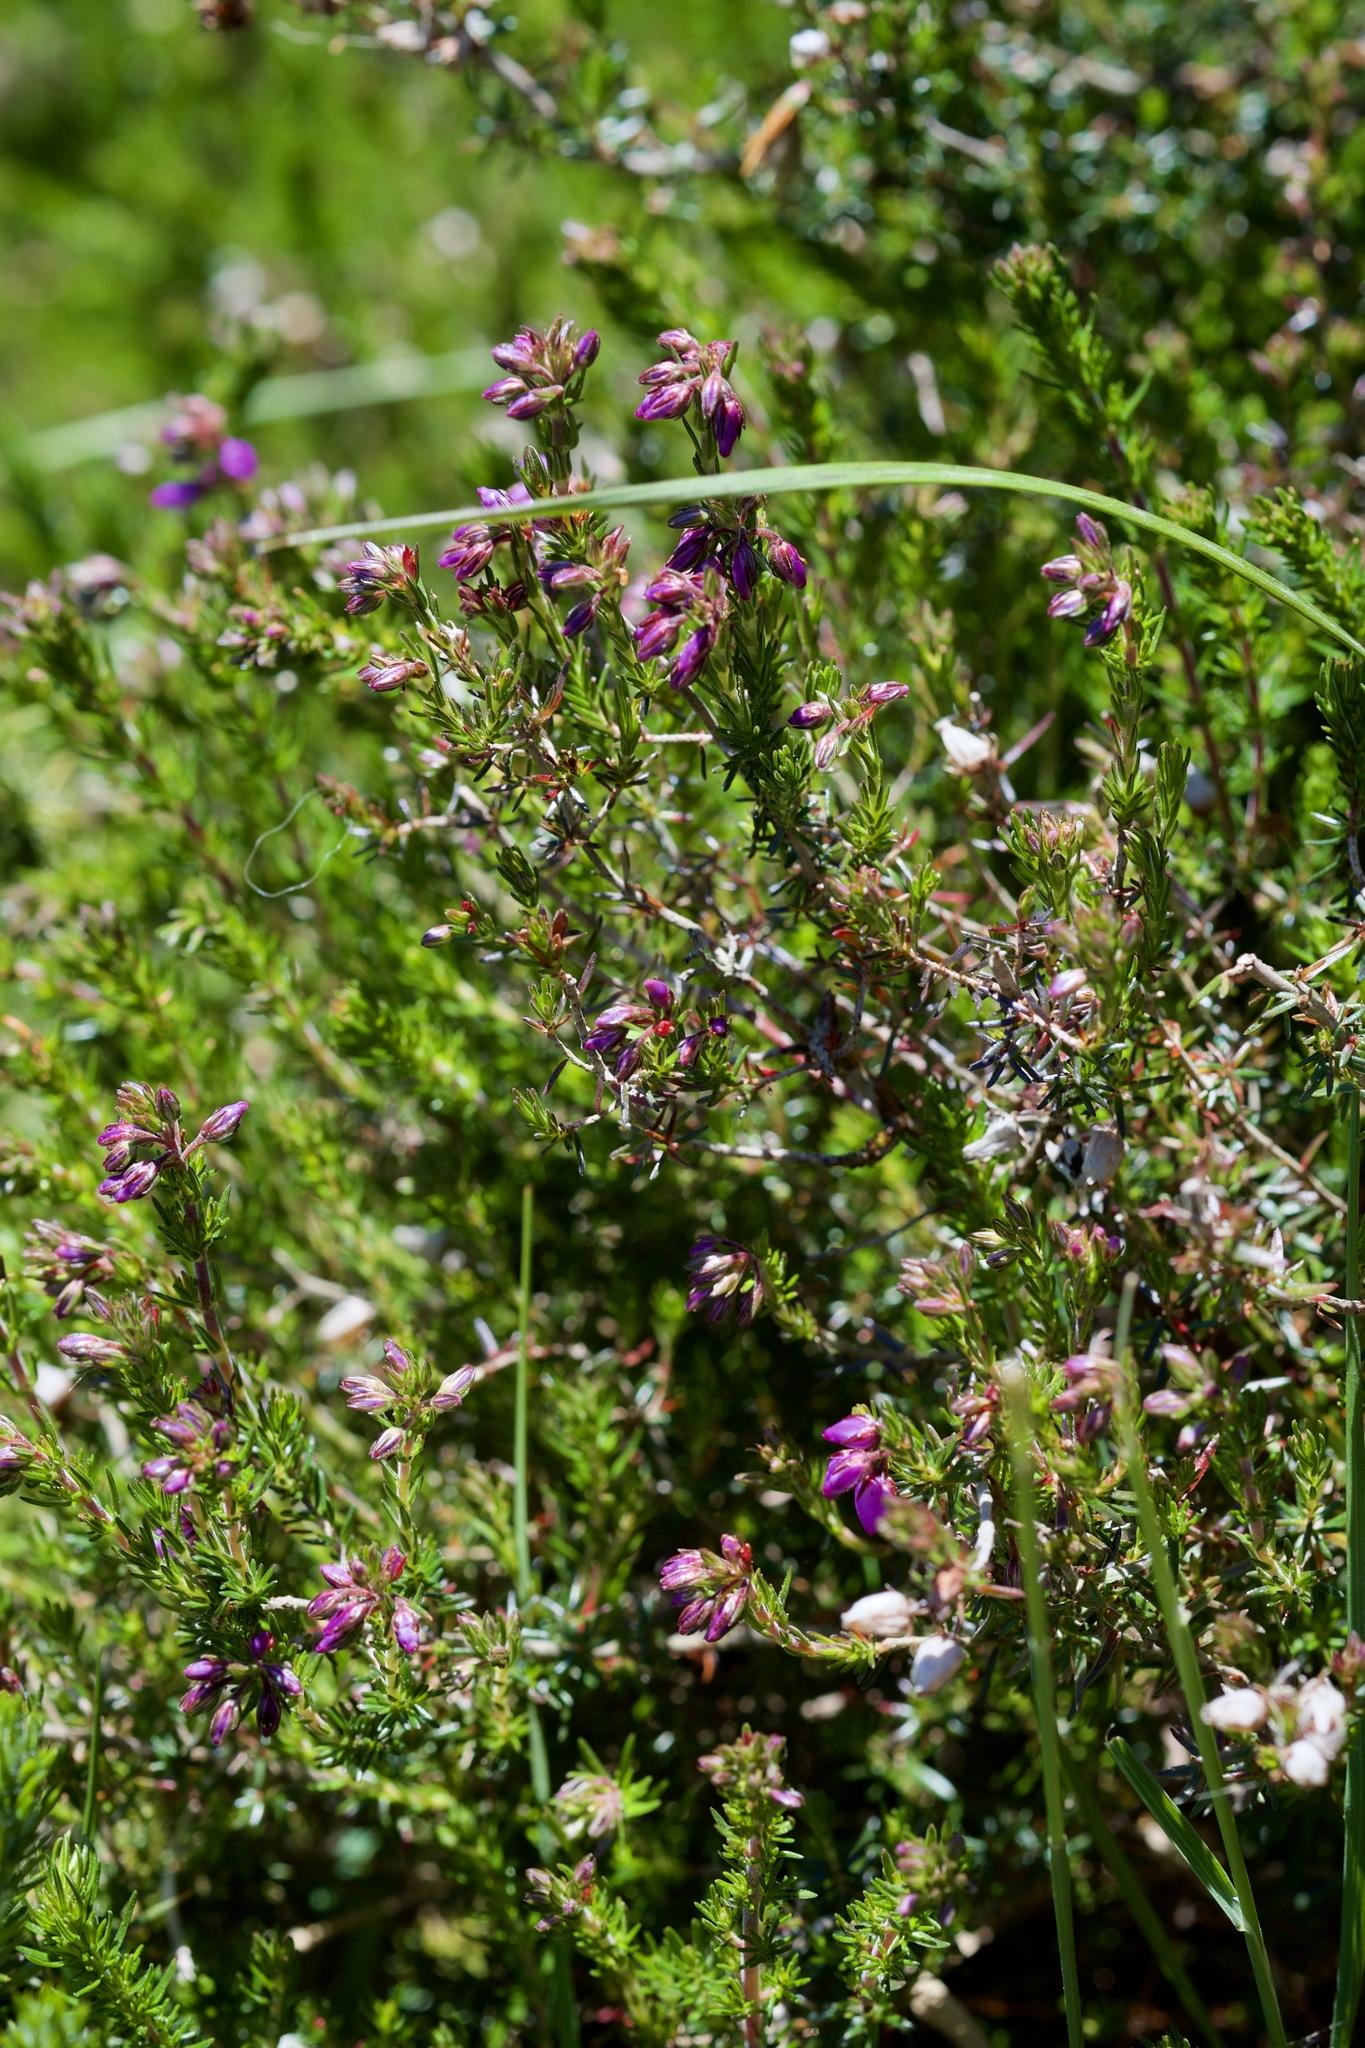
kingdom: Plantae
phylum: Tracheophyta
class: Magnoliopsida
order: Ericales
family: Ericaceae
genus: Erica
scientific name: Erica cinerea
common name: Bell heather
